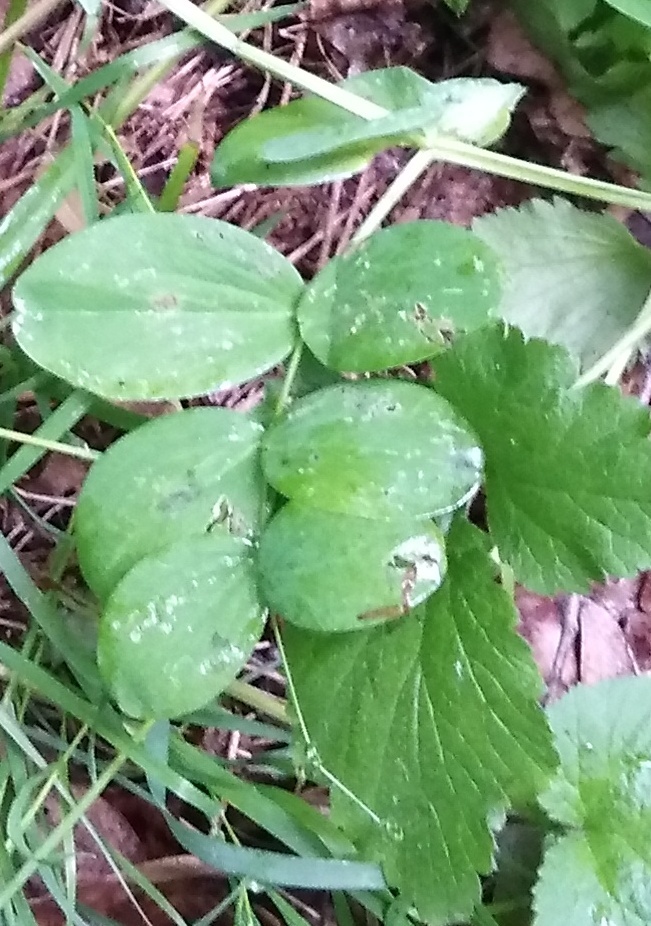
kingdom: Plantae
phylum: Tracheophyta
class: Magnoliopsida
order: Fabales
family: Fabaceae
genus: Lathyrus
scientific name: Lathyrus pisiformis
